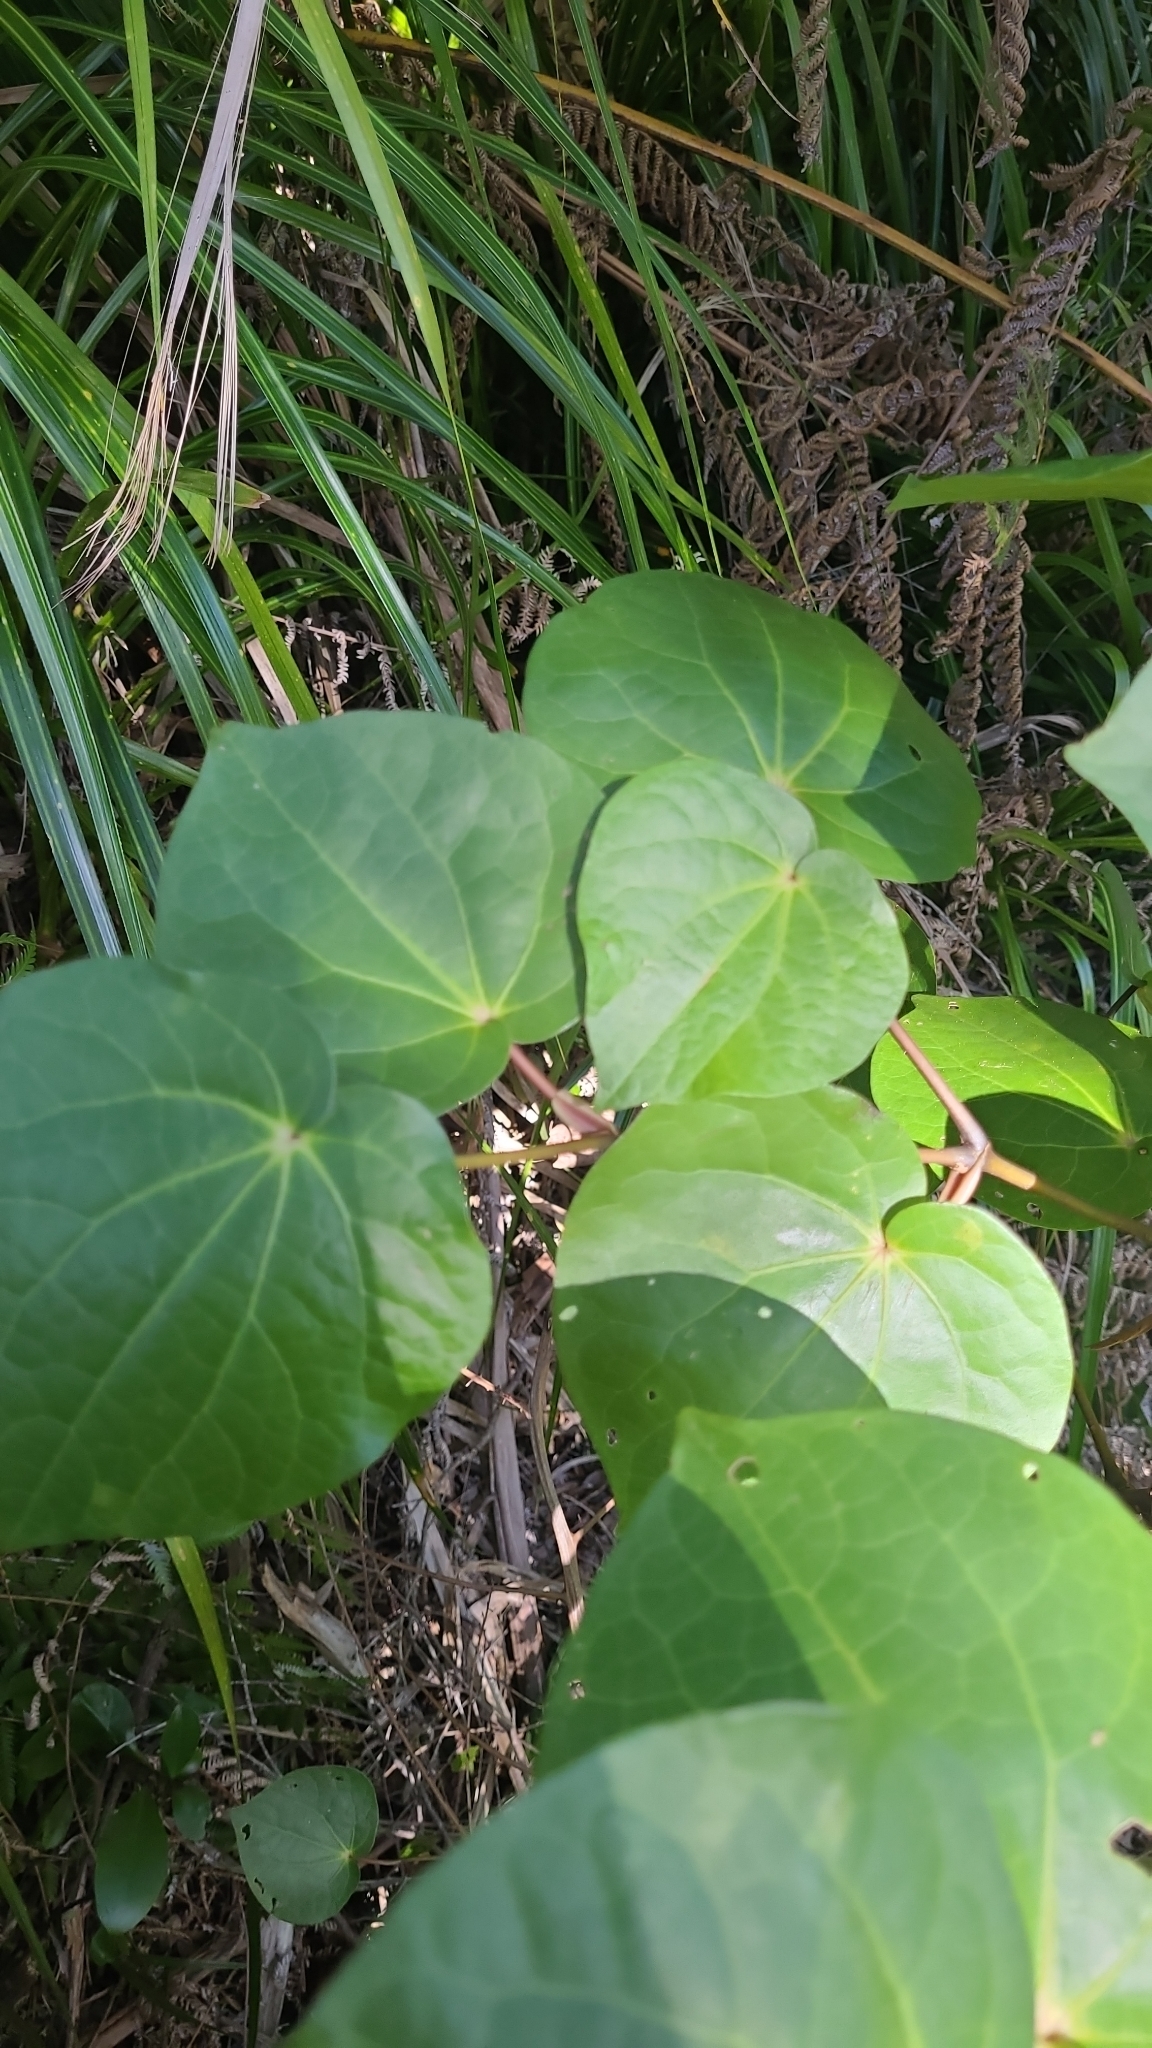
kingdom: Plantae
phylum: Tracheophyta
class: Magnoliopsida
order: Piperales
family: Piperaceae
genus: Macropiper
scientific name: Macropiper excelsum
